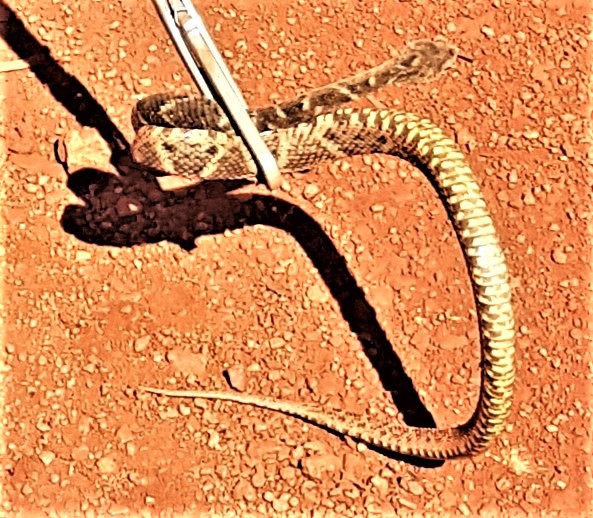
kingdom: Animalia
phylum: Chordata
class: Squamata
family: Viperidae
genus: Bothrops
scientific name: Bothrops atrox
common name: Common lancehead
